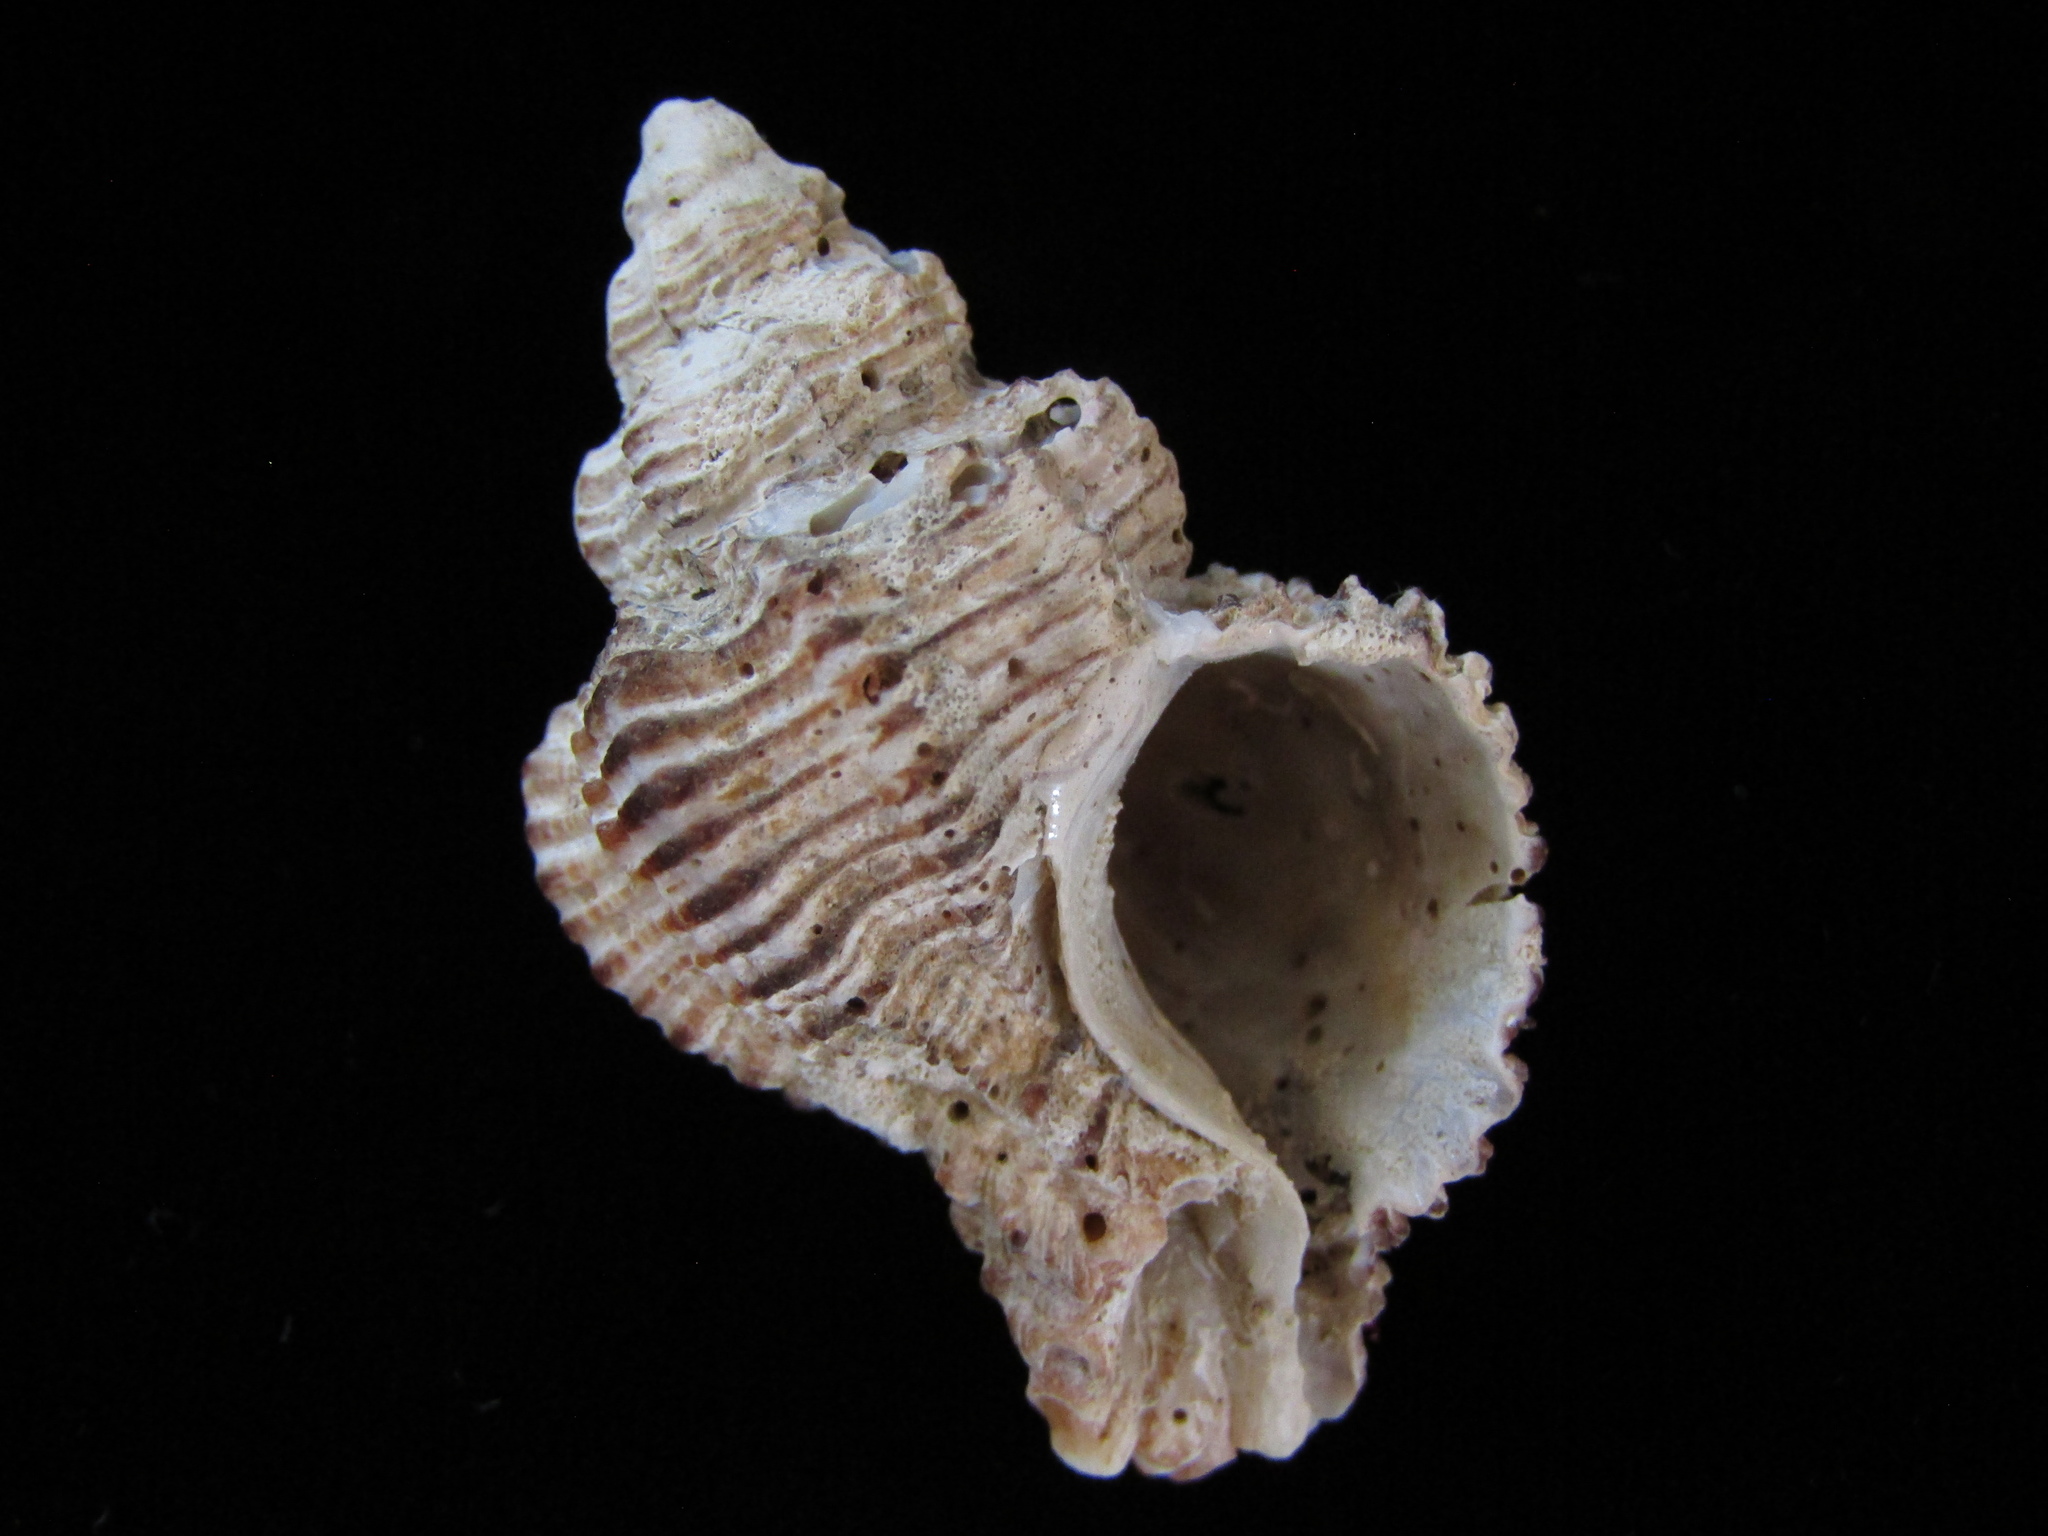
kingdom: Animalia
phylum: Mollusca
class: Gastropoda
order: Neogastropoda
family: Muricidae
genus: Murexsul
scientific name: Murexsul octogonus
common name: Octagon murex
